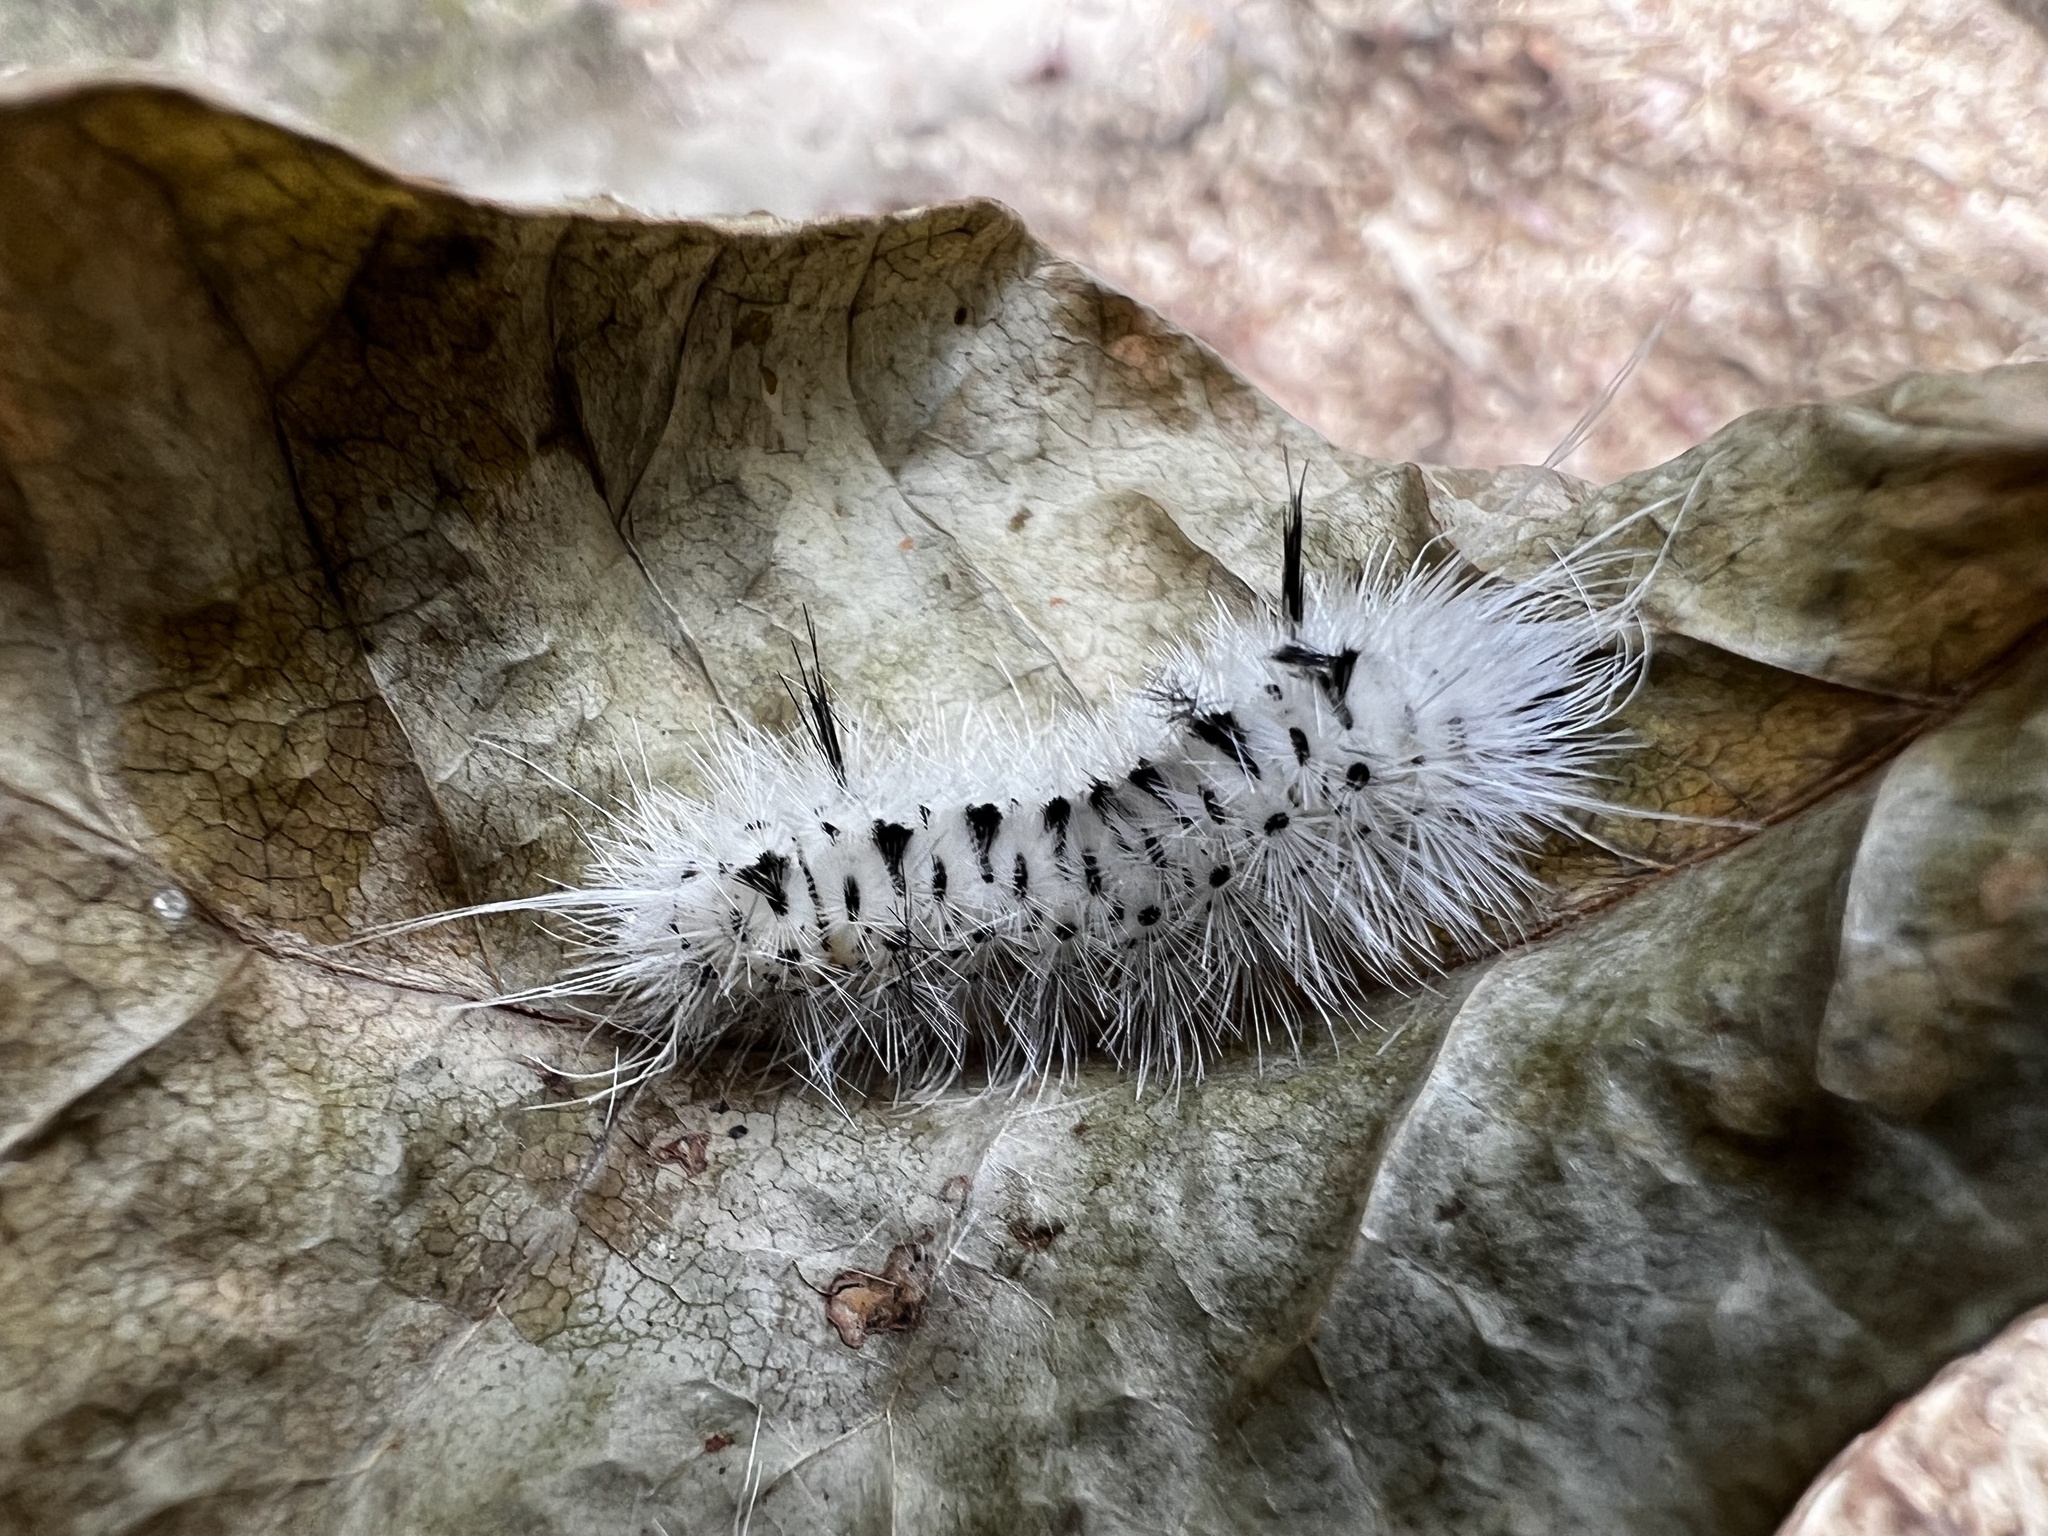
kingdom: Animalia
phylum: Arthropoda
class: Insecta
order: Lepidoptera
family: Erebidae
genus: Lophocampa
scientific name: Lophocampa caryae
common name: Hickory tussock moth
